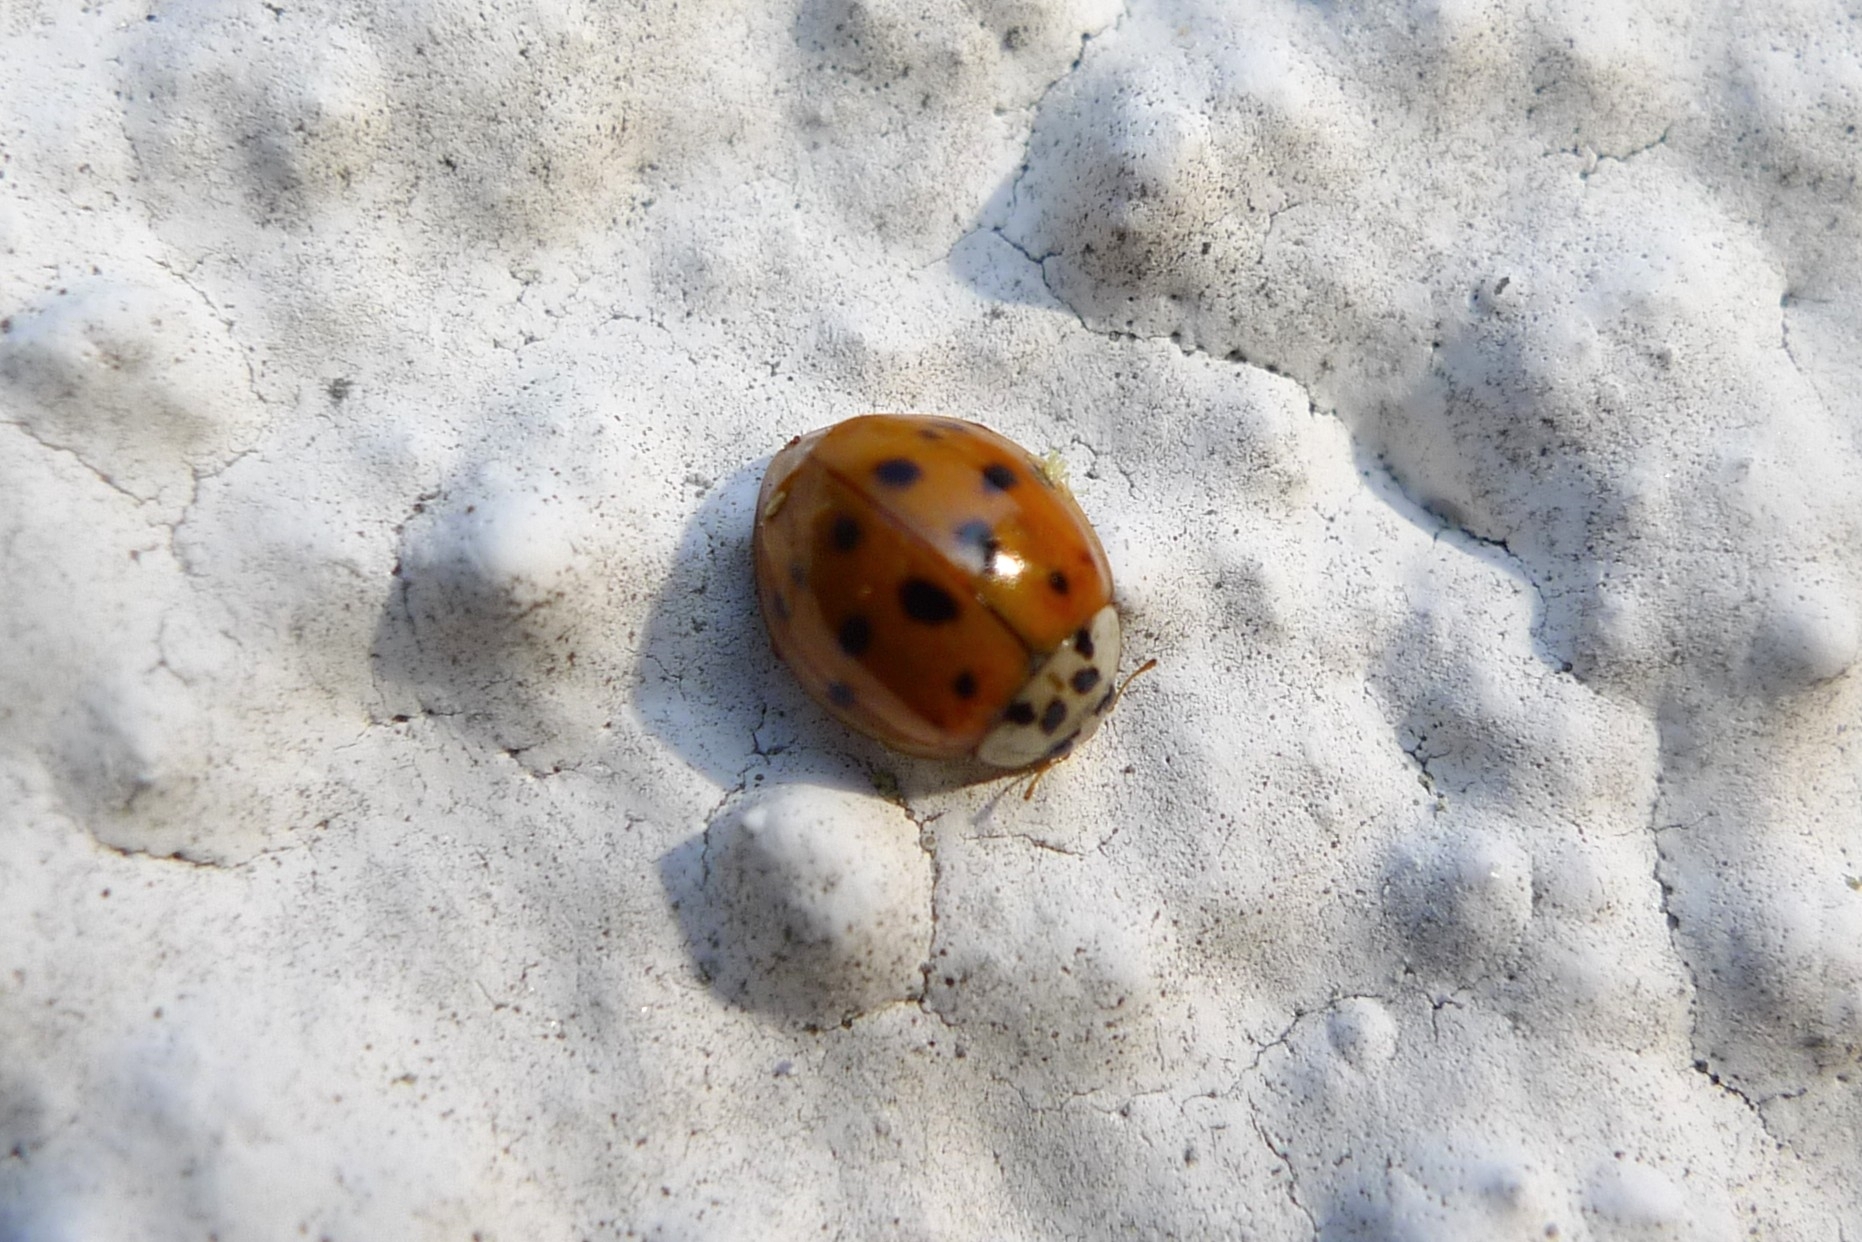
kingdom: Animalia
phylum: Arthropoda
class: Insecta
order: Coleoptera
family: Coccinellidae
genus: Harmonia
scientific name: Harmonia axyridis
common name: Harlequin ladybird
